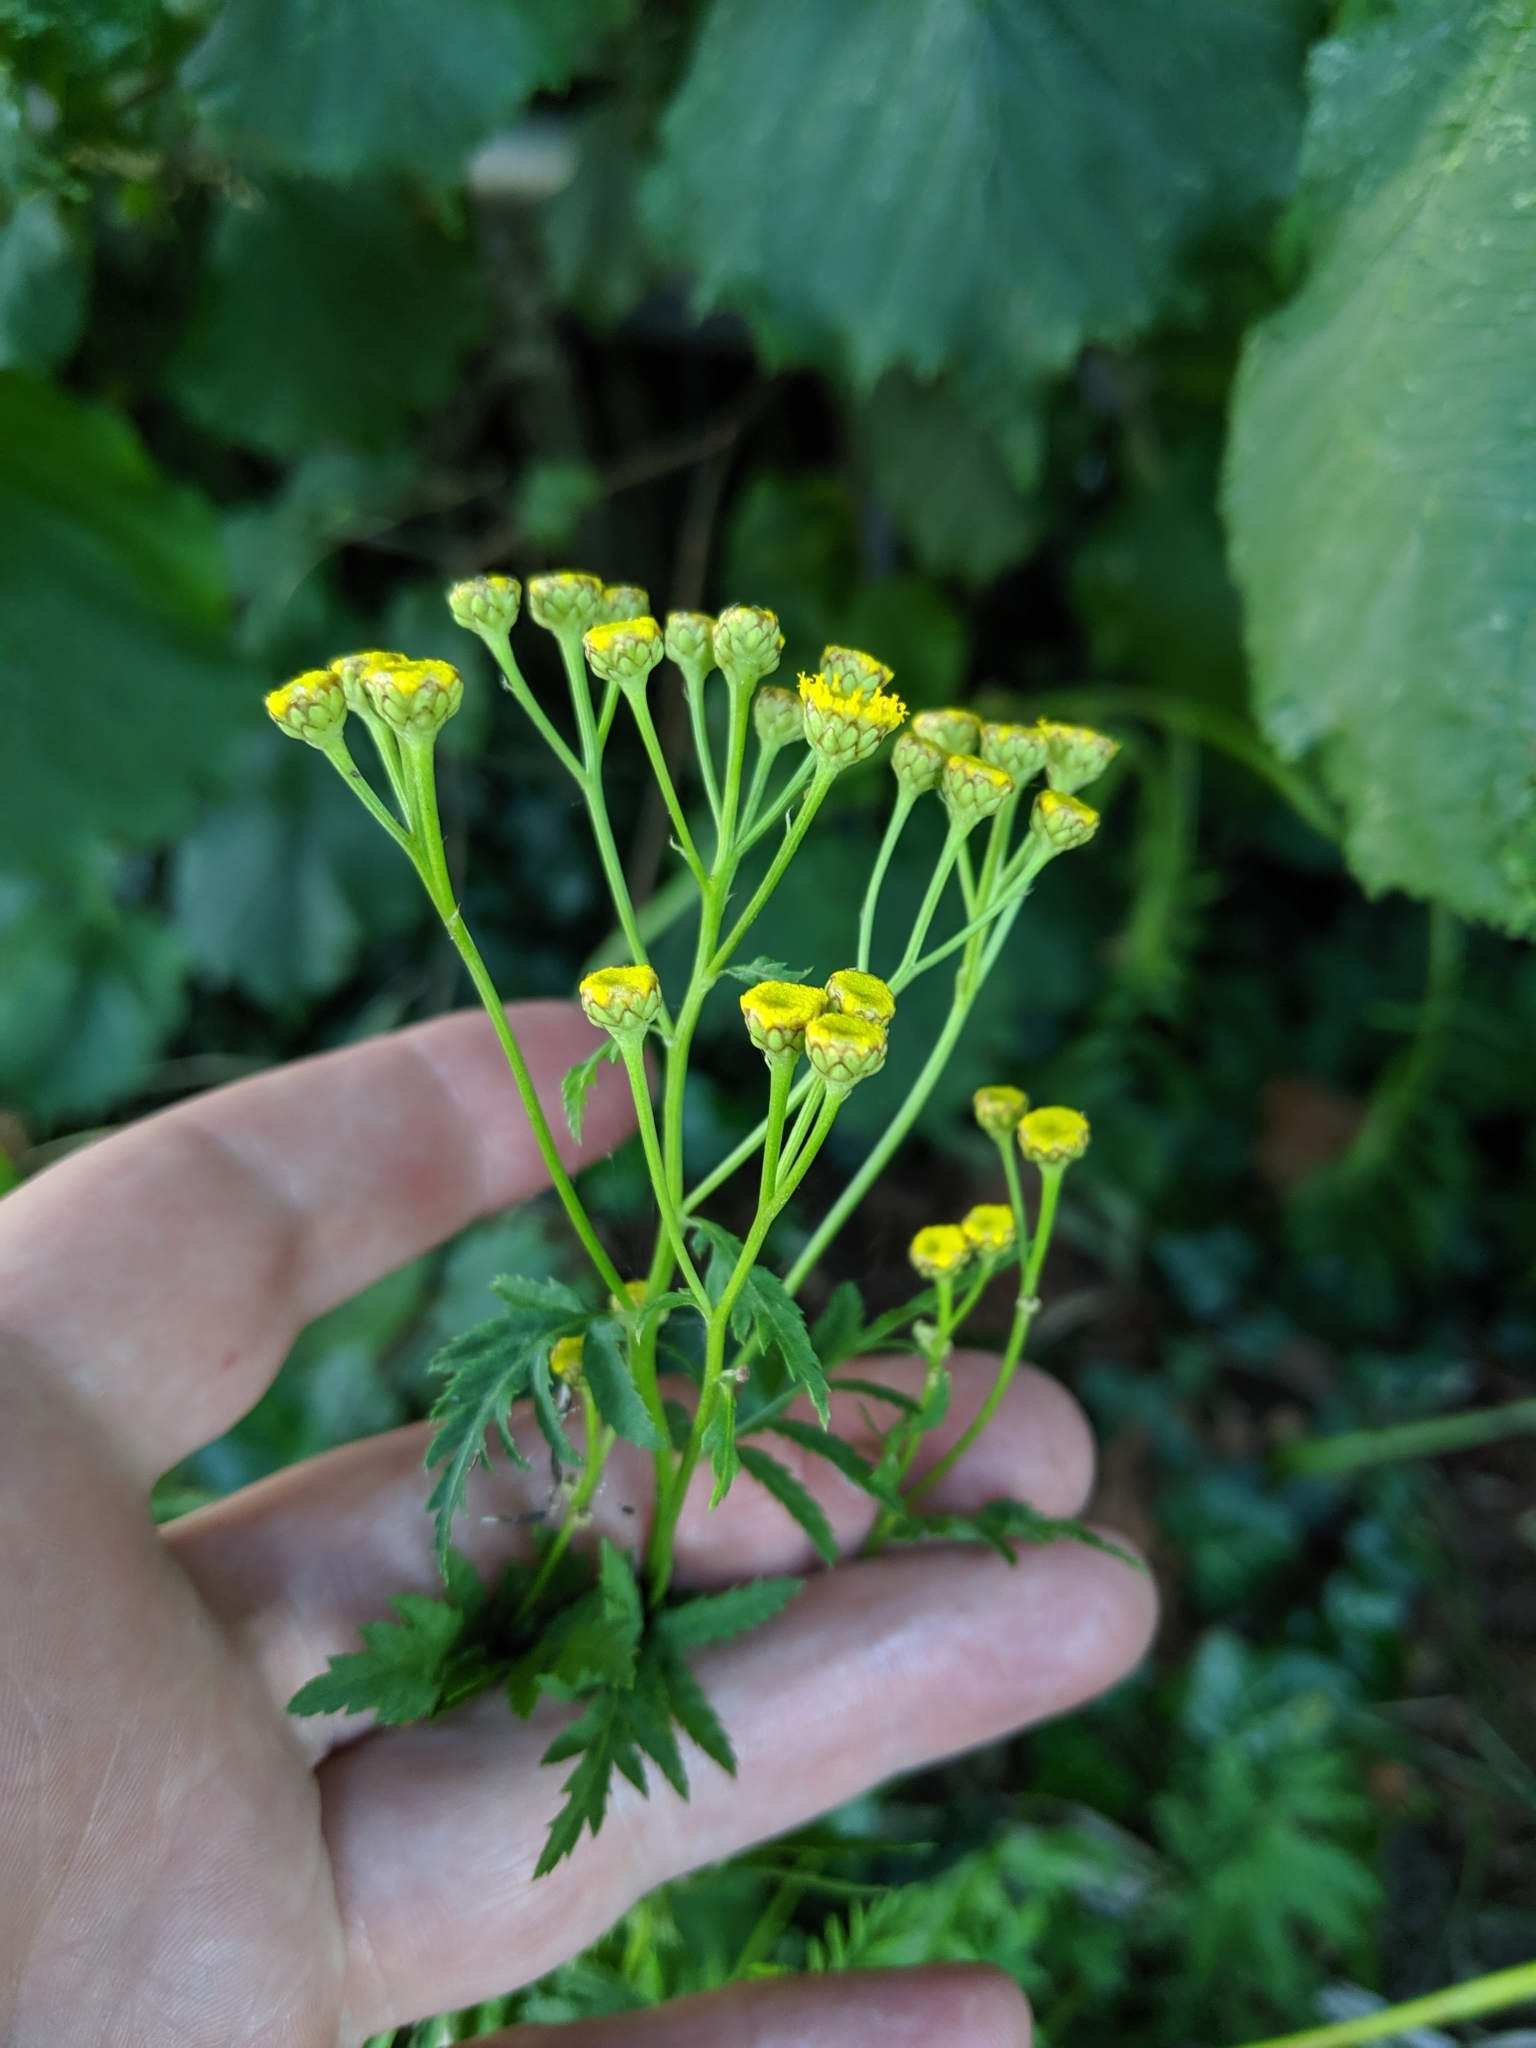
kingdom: Plantae
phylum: Tracheophyta
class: Magnoliopsida
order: Asterales
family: Asteraceae
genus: Tanacetum
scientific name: Tanacetum vulgare
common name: Common tansy
